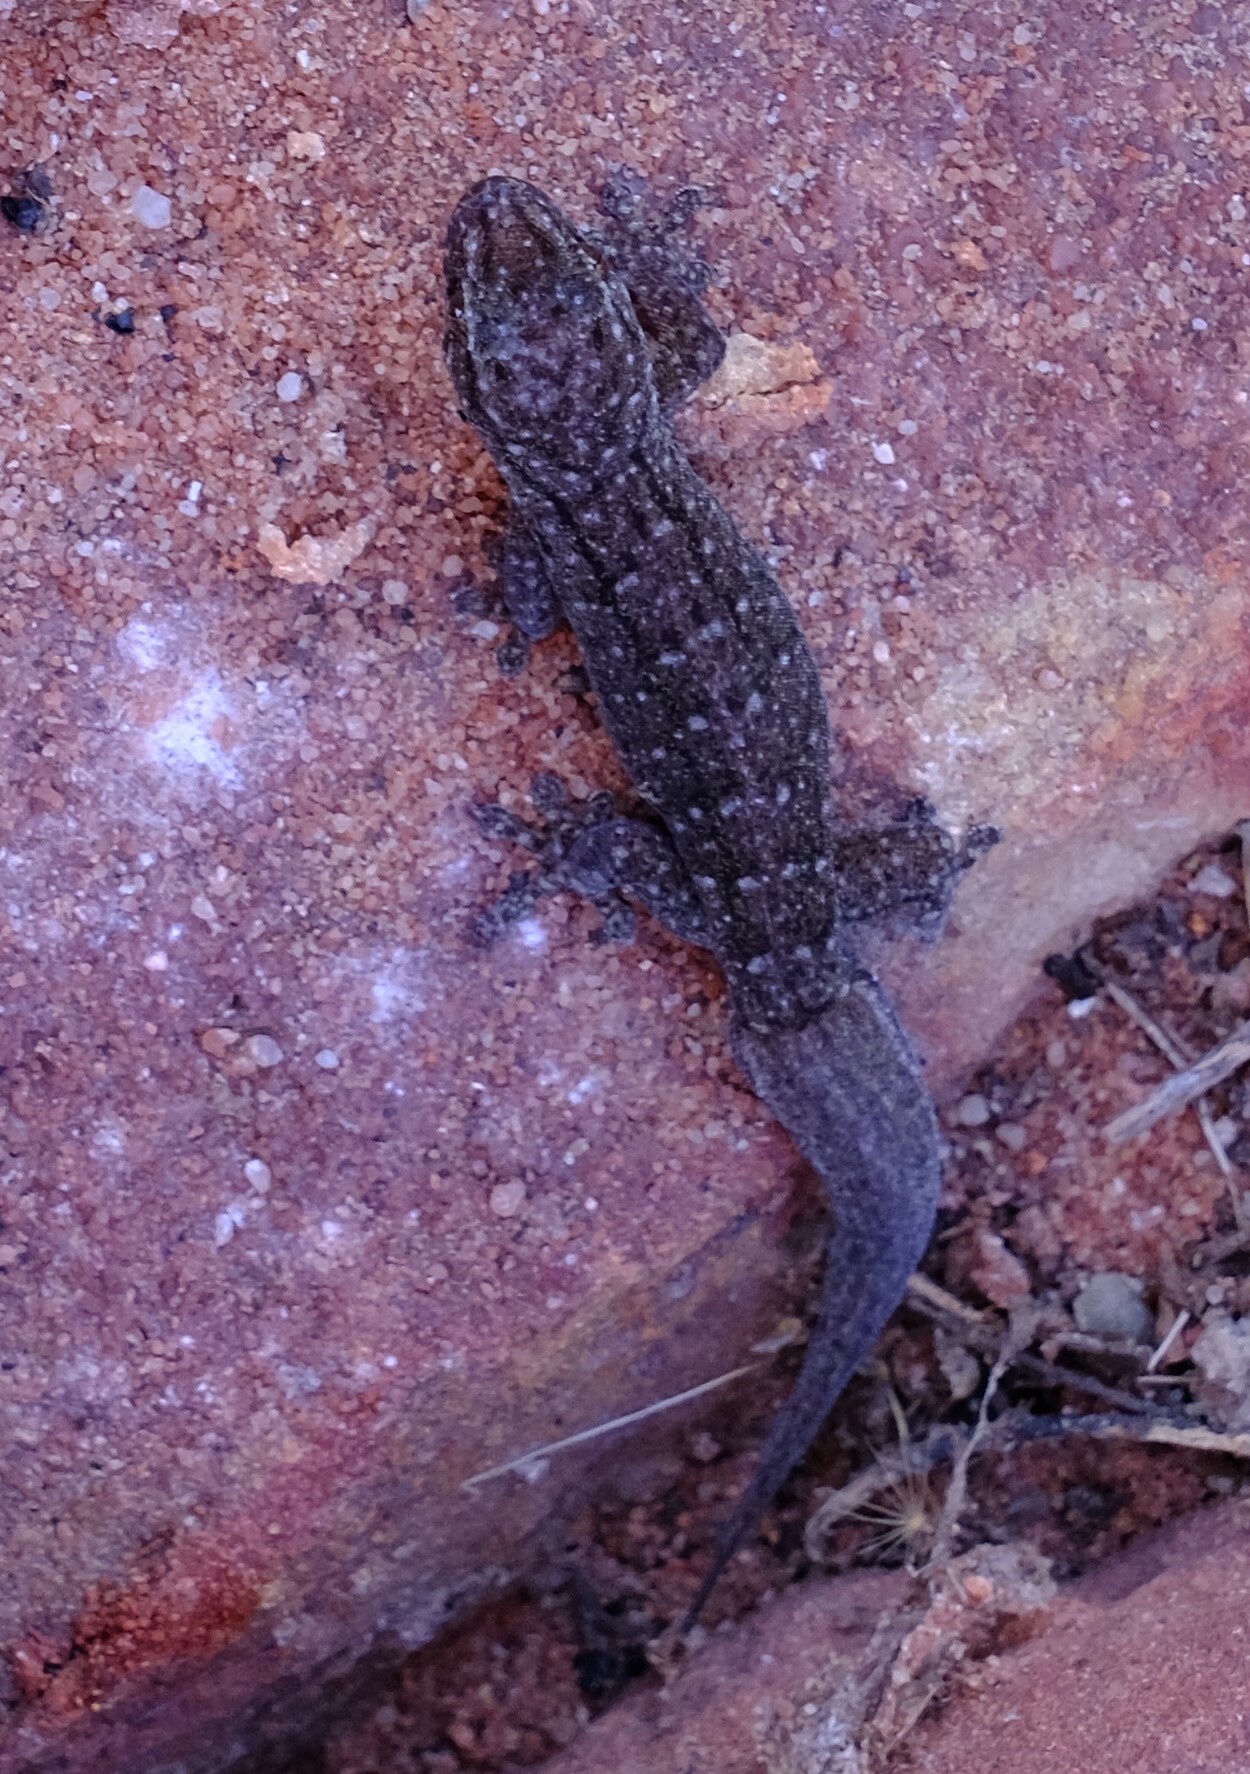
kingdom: Animalia
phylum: Chordata
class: Squamata
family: Gekkonidae
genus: Gehyra
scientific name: Gehyra variegata
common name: Tree dtella
